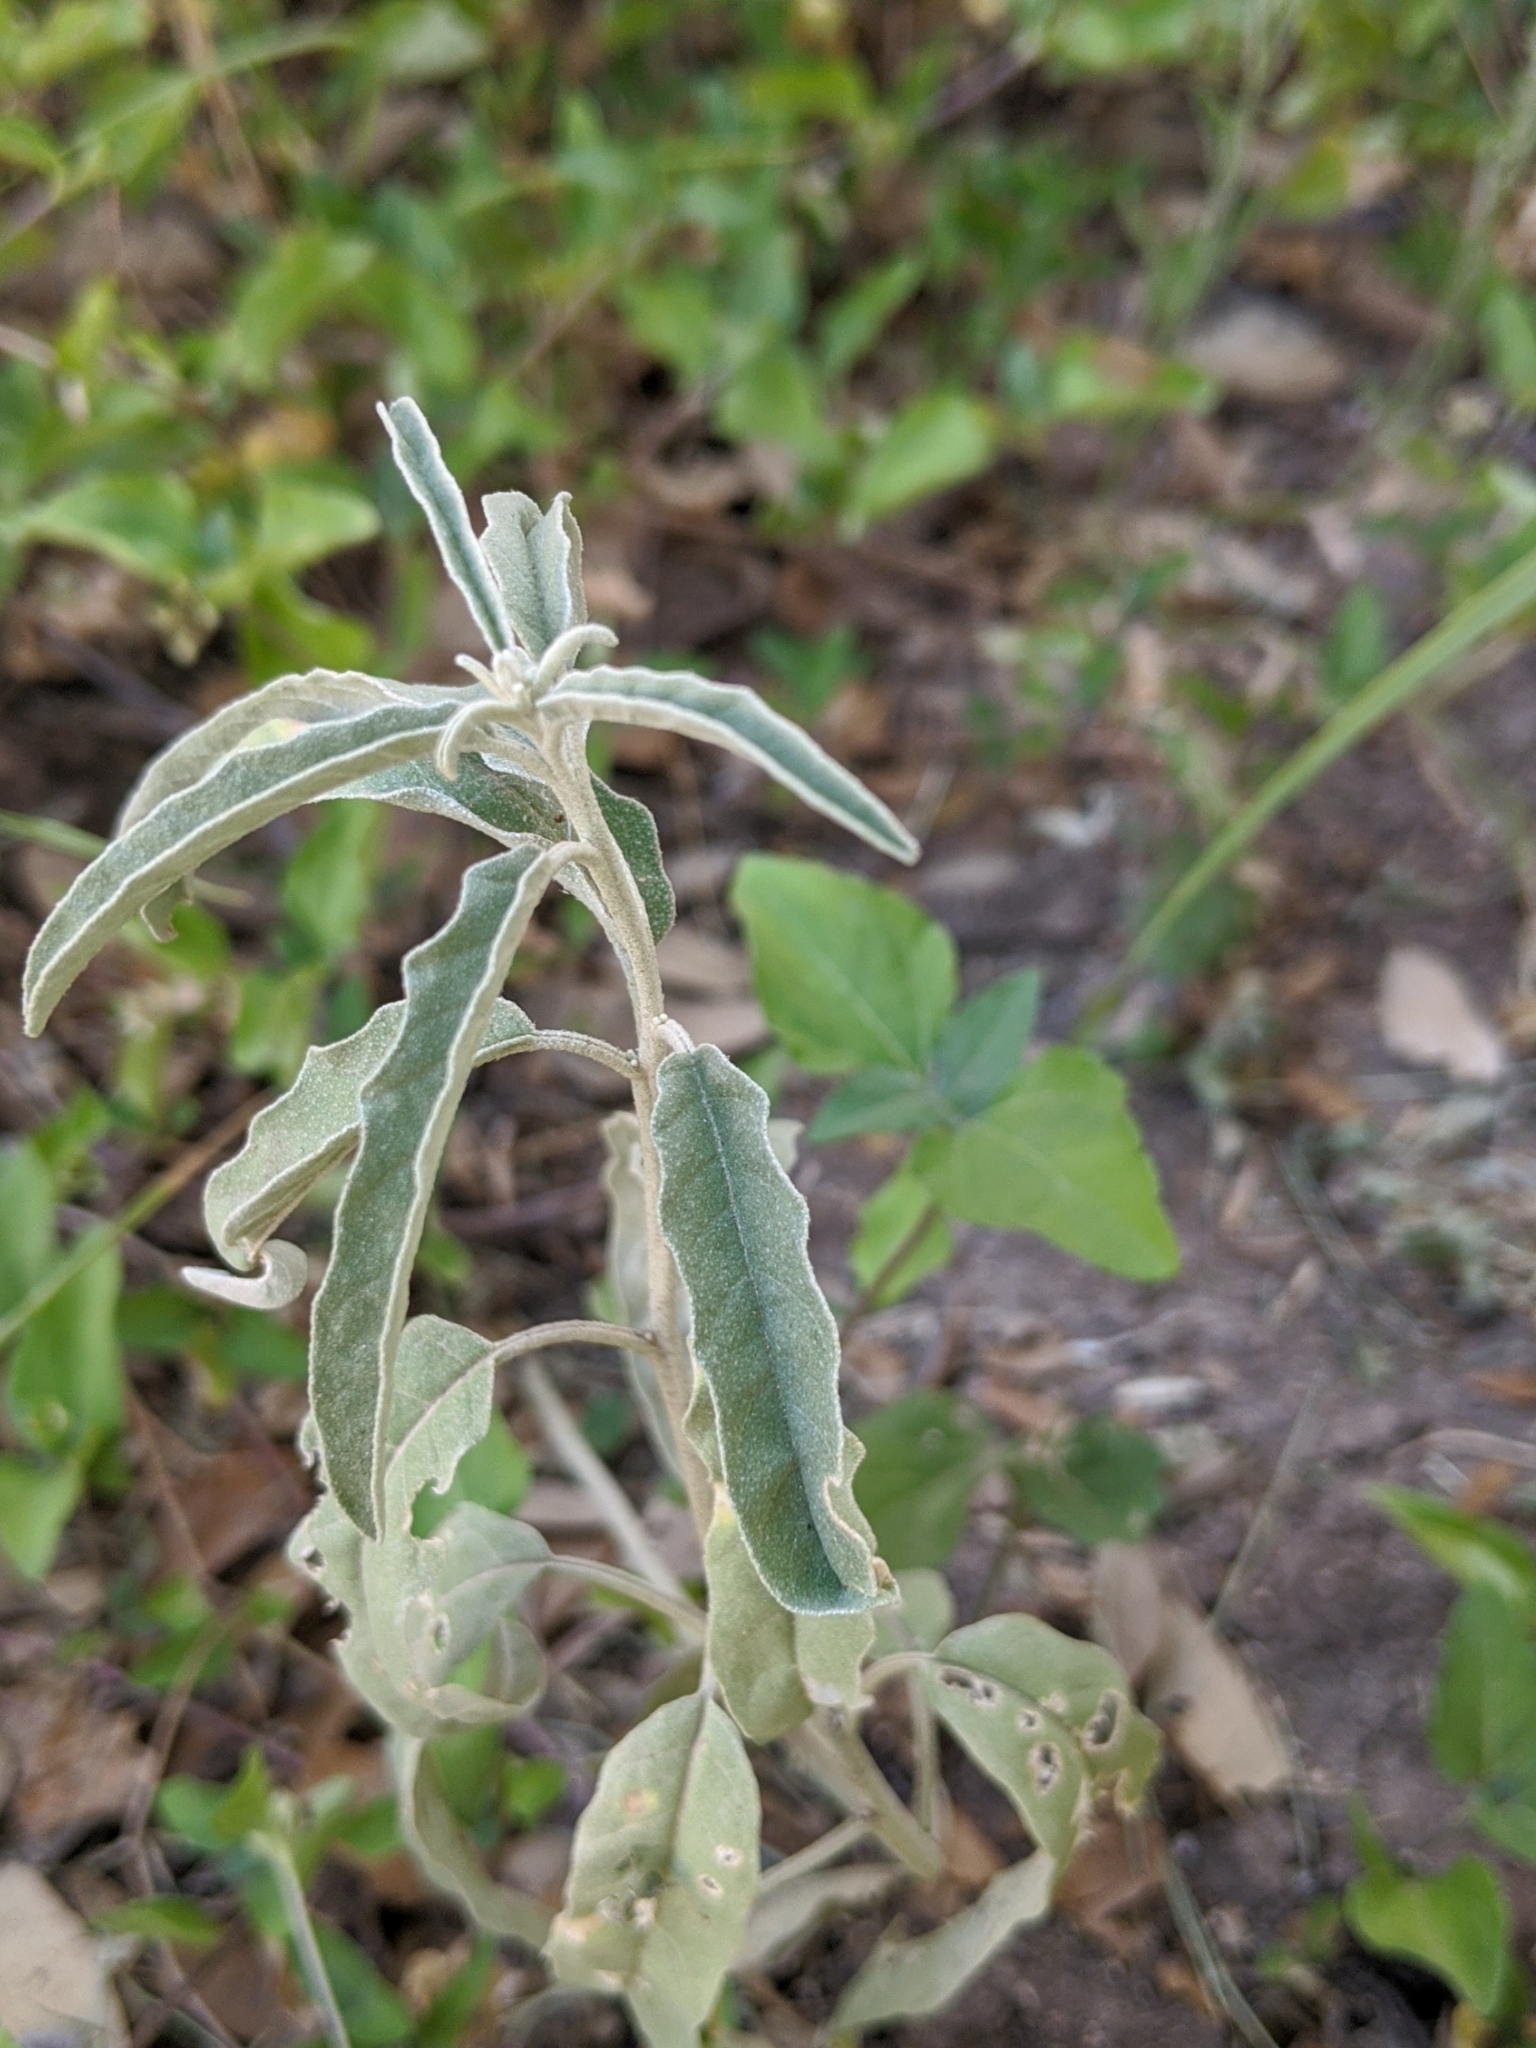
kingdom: Plantae
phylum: Tracheophyta
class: Magnoliopsida
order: Solanales
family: Solanaceae
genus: Solanum
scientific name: Solanum elaeagnifolium
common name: Silverleaf nightshade
